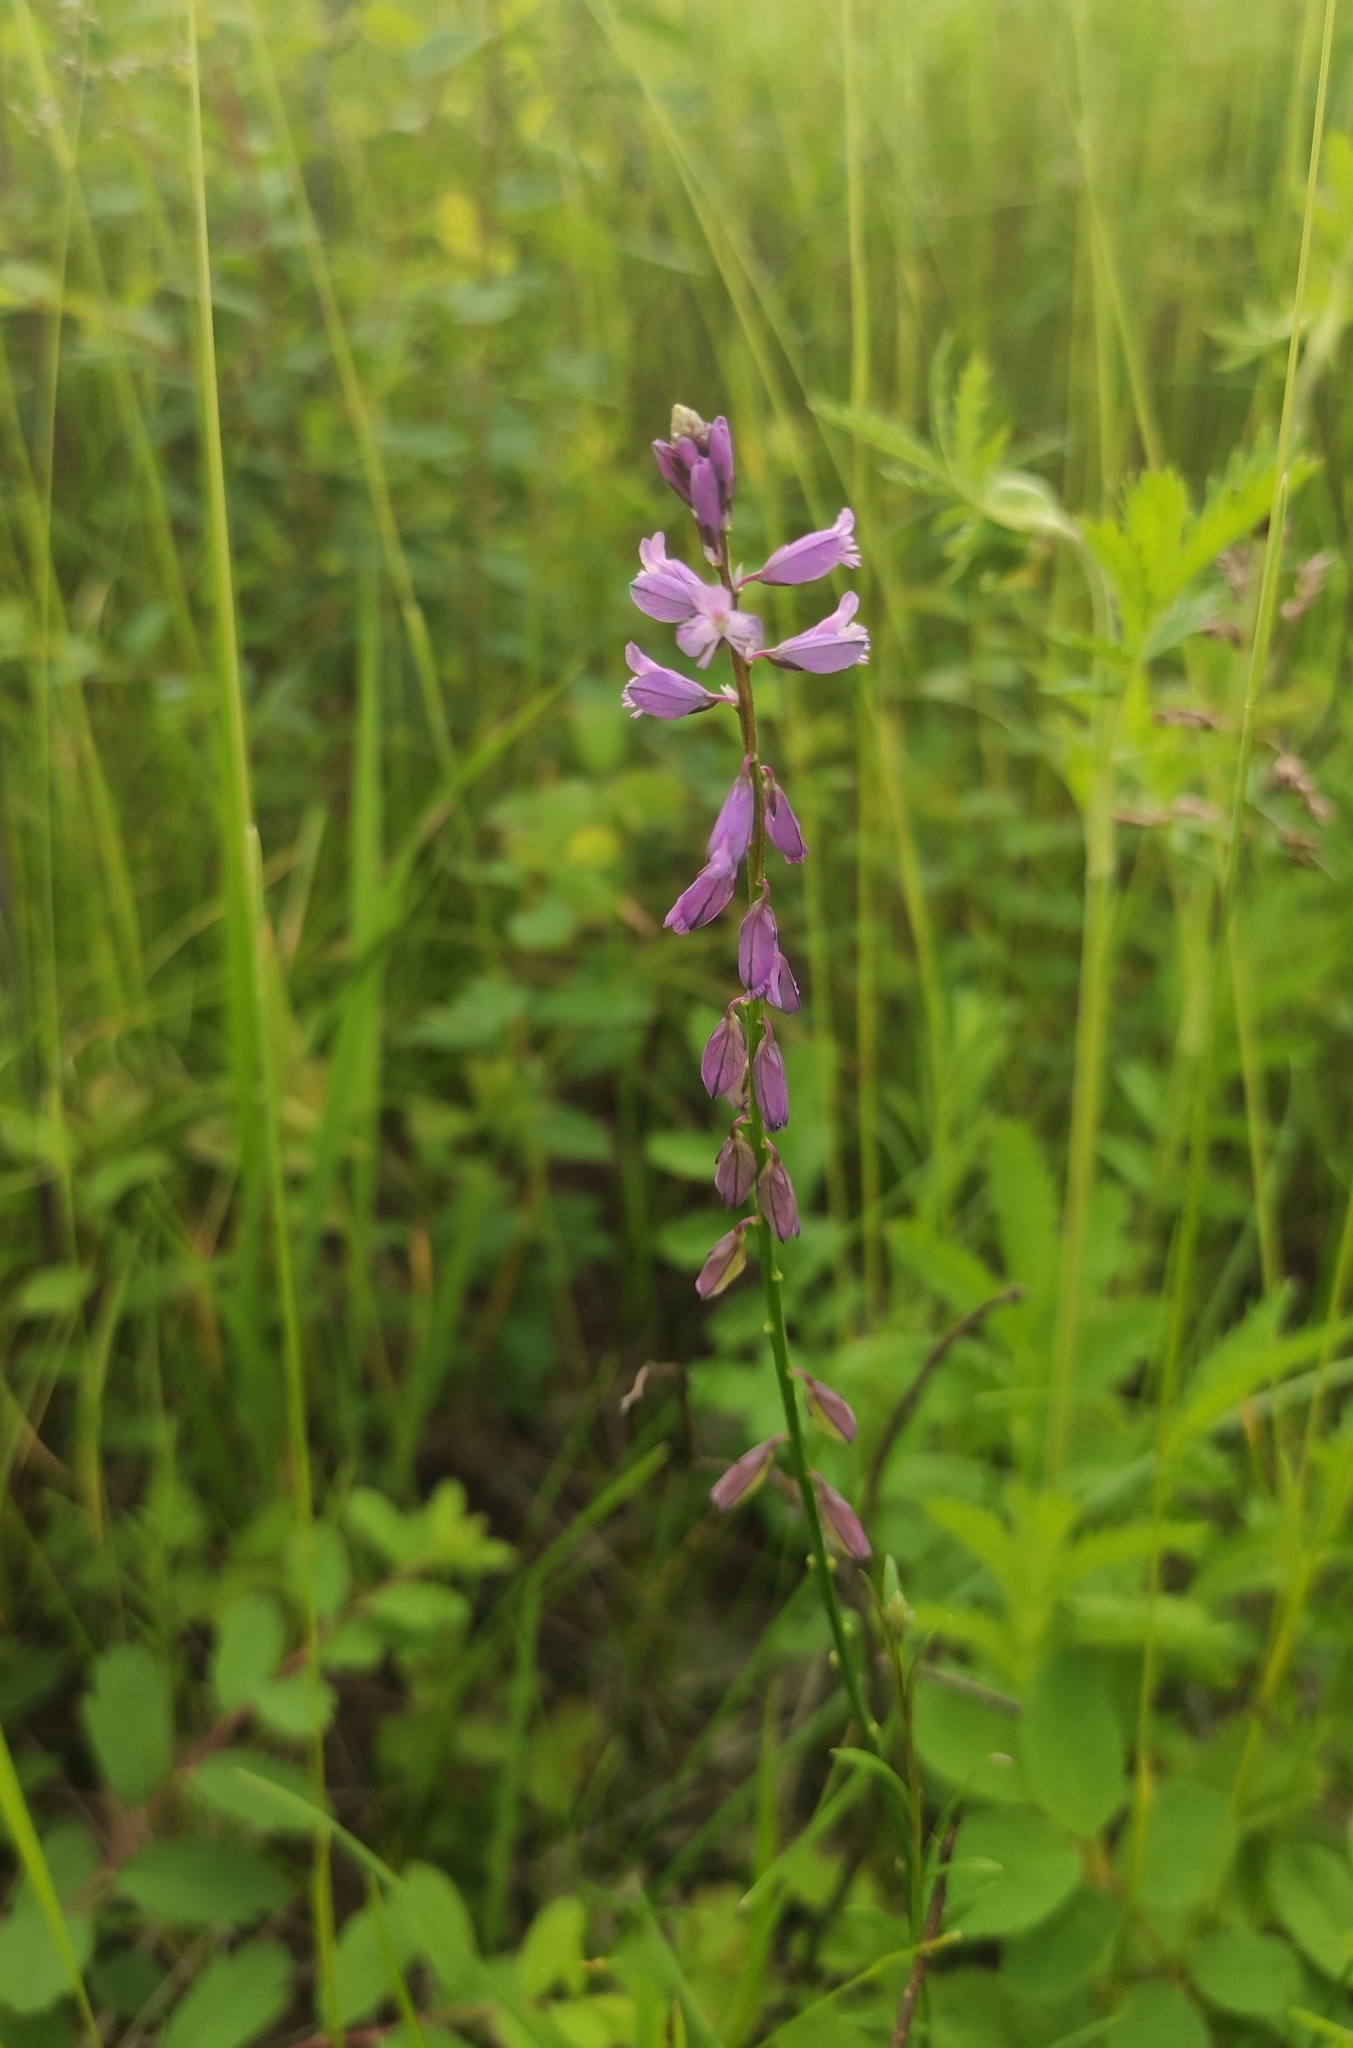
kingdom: Plantae
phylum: Tracheophyta
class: Magnoliopsida
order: Fabales
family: Polygalaceae
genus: Polygala
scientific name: Polygala comosa
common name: Tufted milkwort
